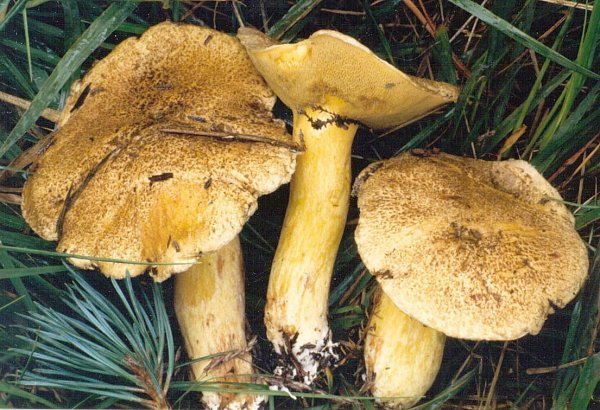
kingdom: Fungi
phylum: Basidiomycota
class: Agaricomycetes
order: Boletales
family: Suillaceae
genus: Suillus
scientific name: Suillus variegatus
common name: Velvet bolete
